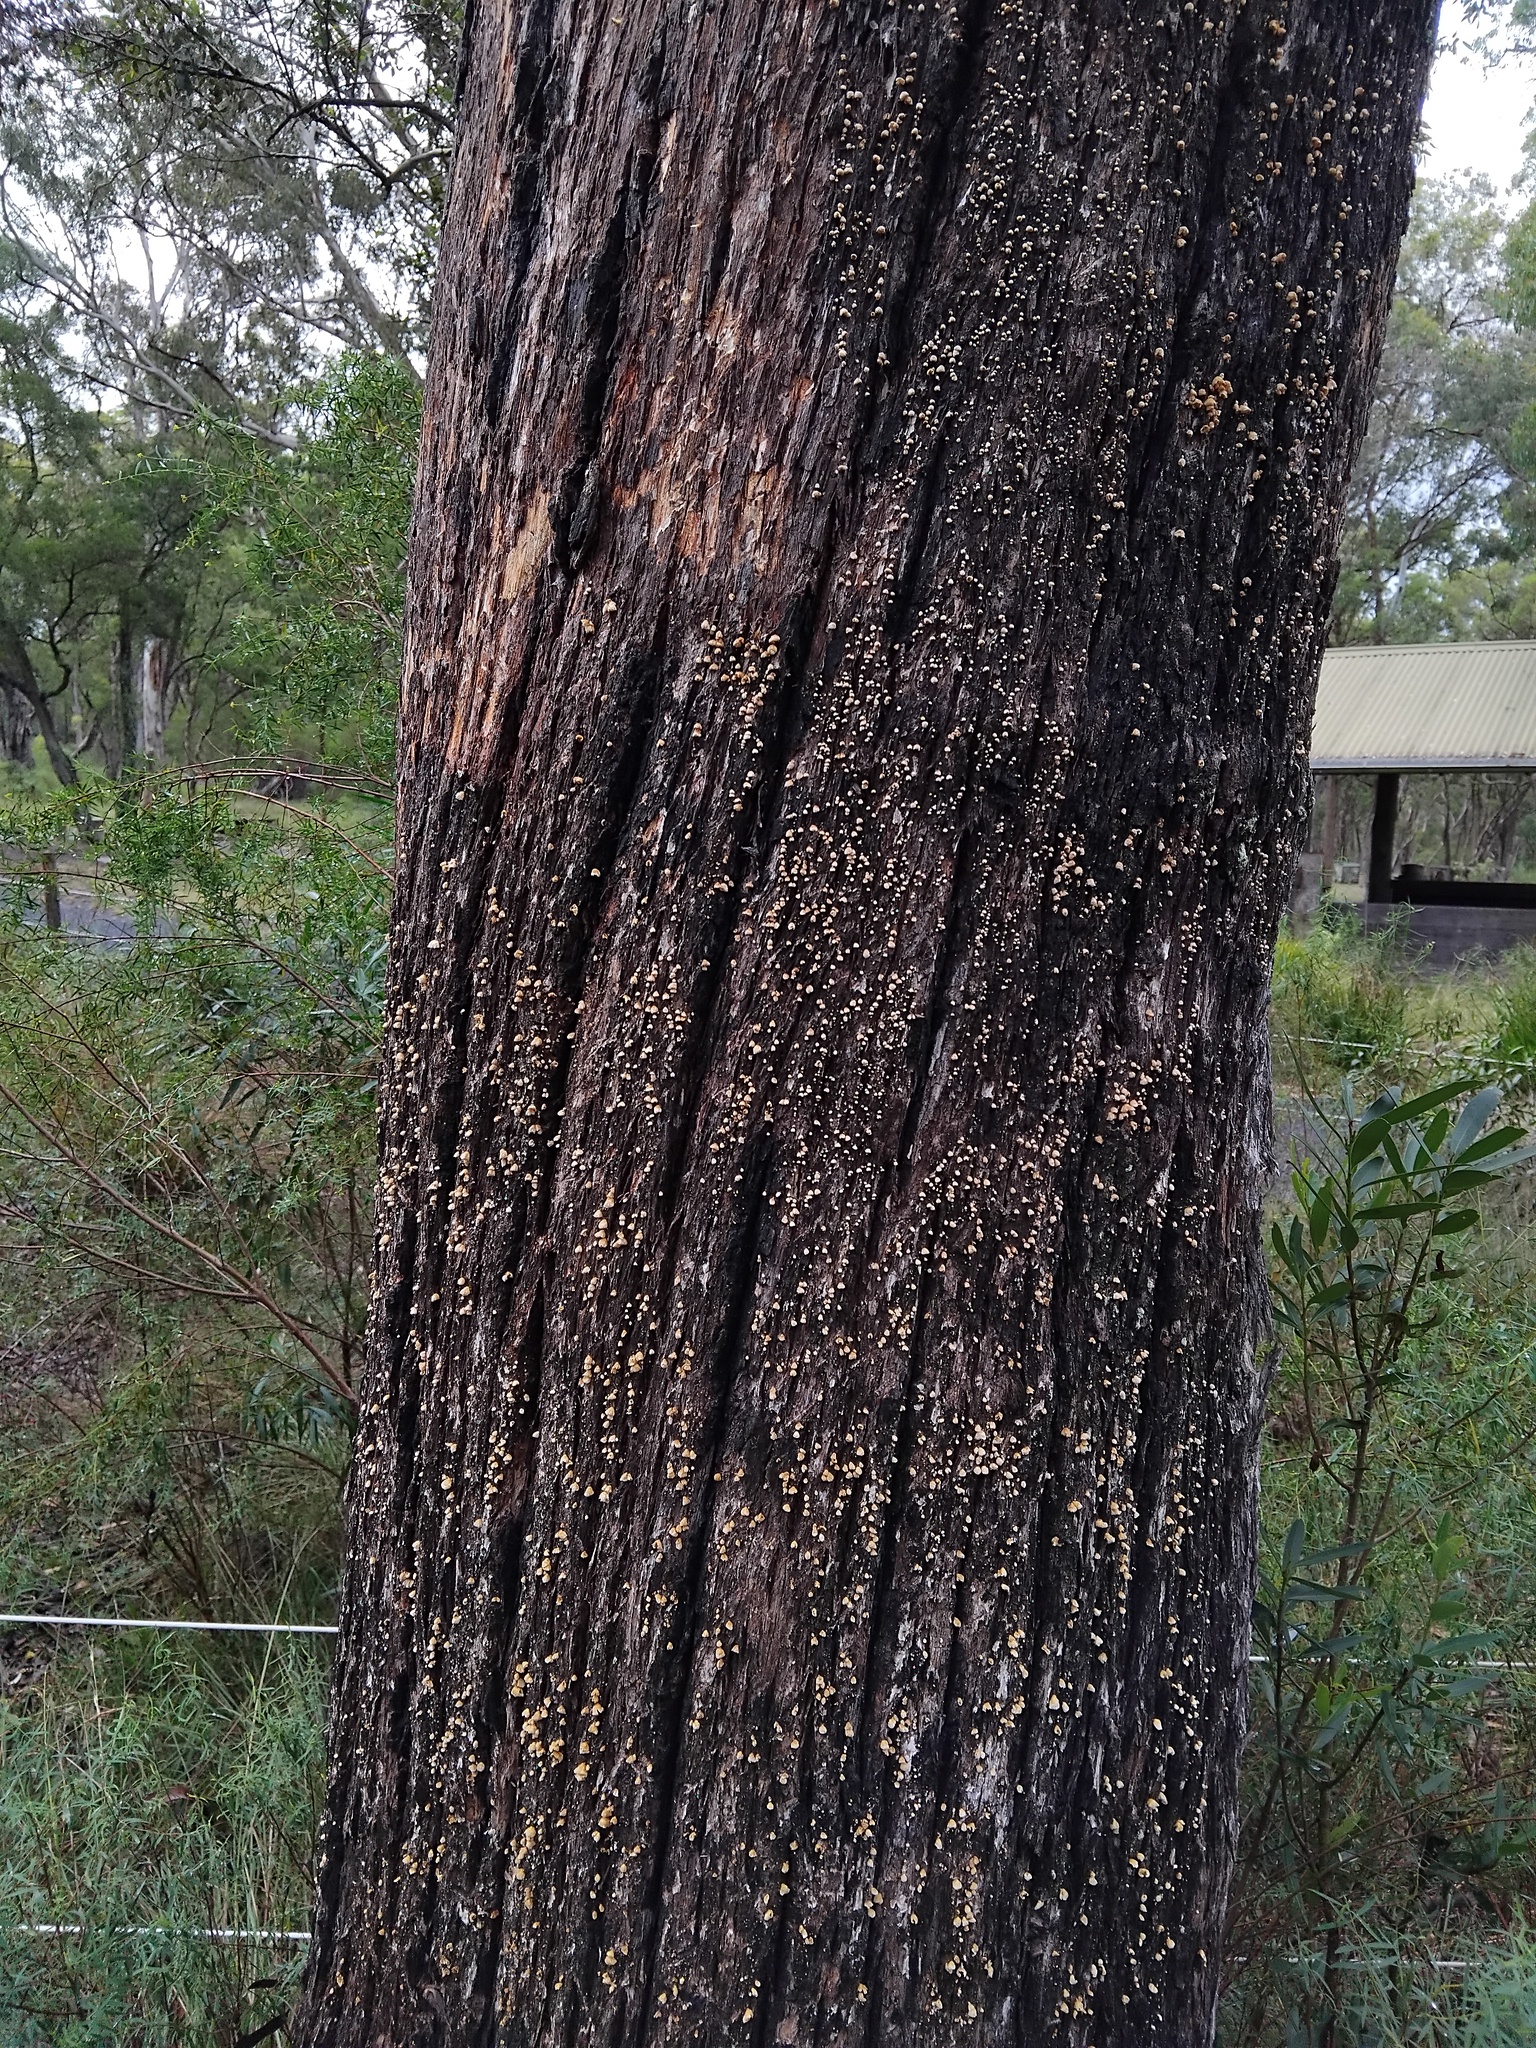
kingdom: Fungi
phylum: Basidiomycota
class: Agaricomycetes
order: Agaricales
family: Marasmiaceae
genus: Campanella
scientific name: Campanella gigantospora
